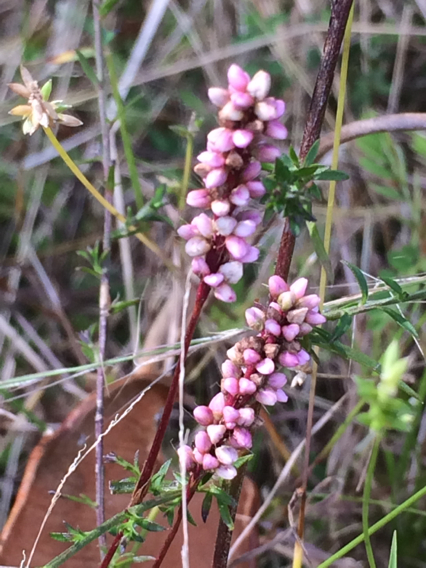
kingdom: Plantae
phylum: Tracheophyta
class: Magnoliopsida
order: Caryophyllales
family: Polygonaceae
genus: Persicaria
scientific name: Persicaria longiseta
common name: Bristly lady's-thumb
